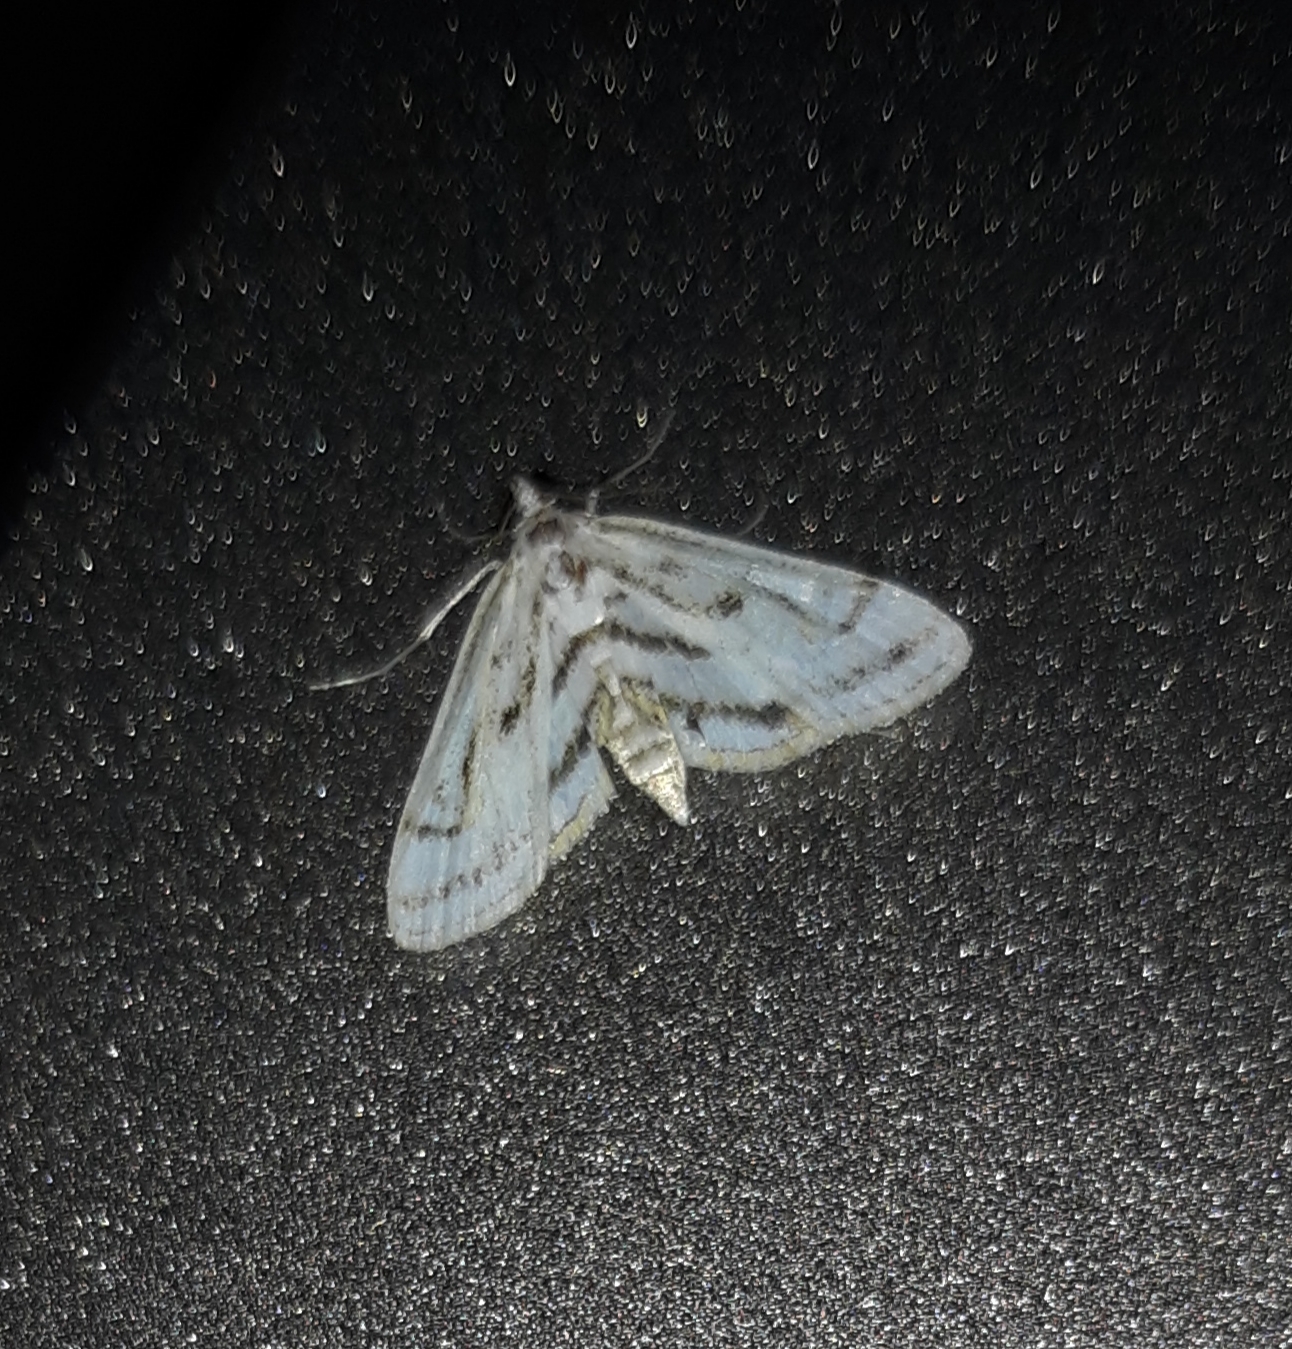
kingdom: Animalia
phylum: Arthropoda
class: Insecta
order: Lepidoptera
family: Crambidae
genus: Parapoynx
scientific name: Parapoynx badiusalis
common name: Chestnut-marked pondweed moth
